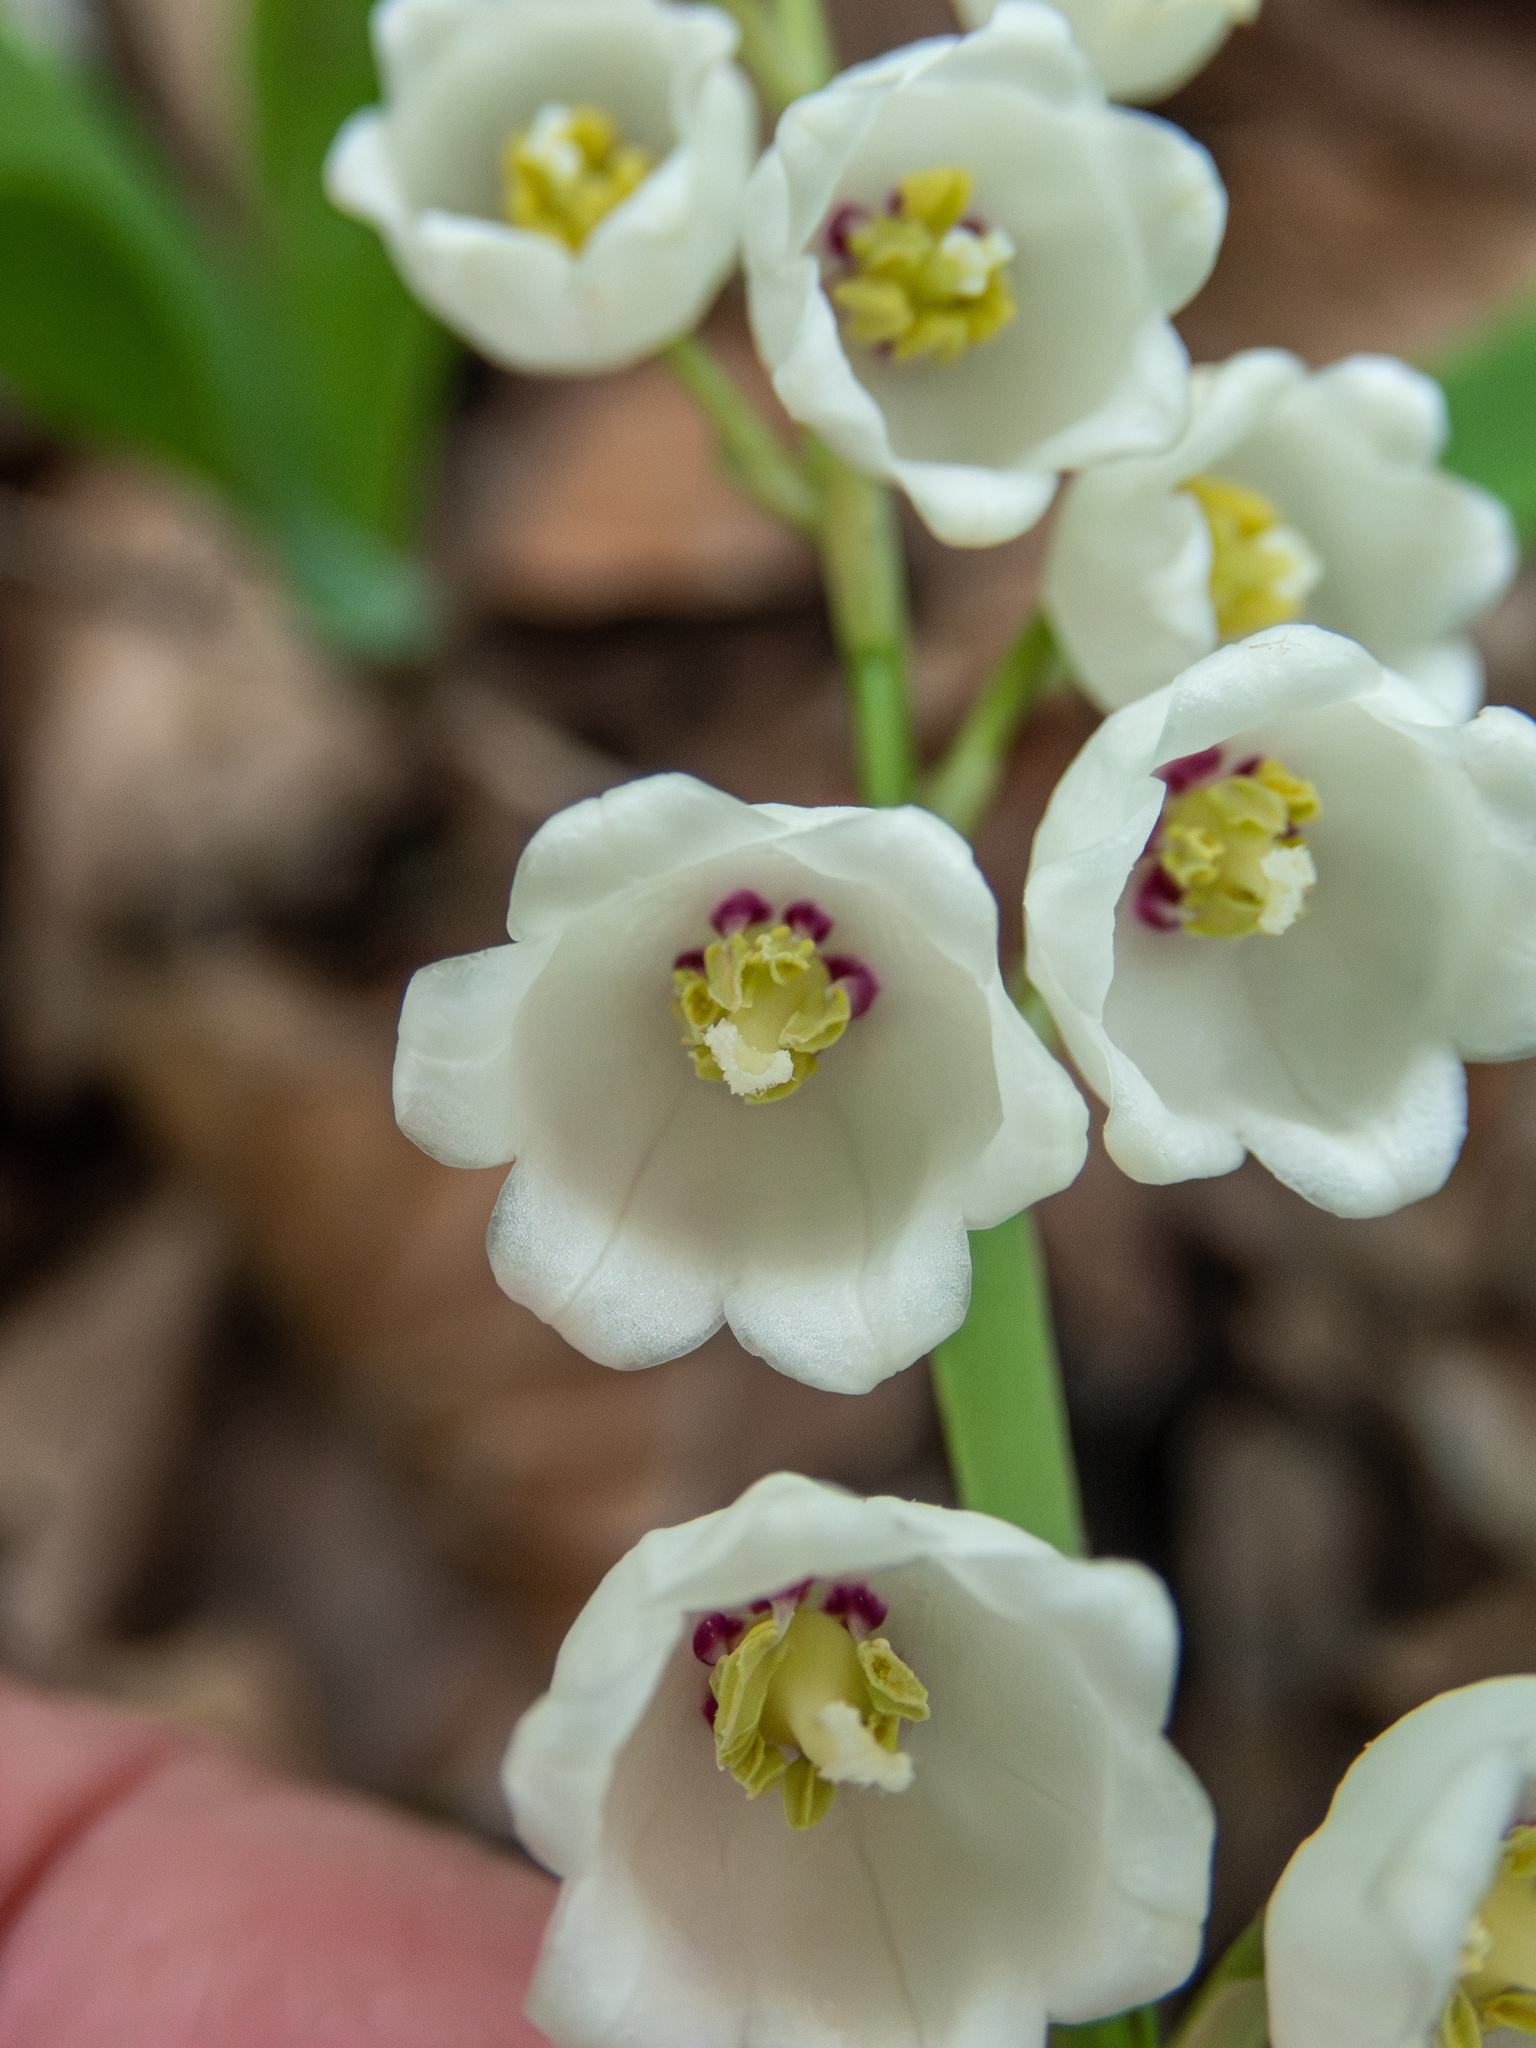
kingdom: Plantae
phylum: Tracheophyta
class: Liliopsida
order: Asparagales
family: Asparagaceae
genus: Convallaria
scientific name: Convallaria majalis
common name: Lily-of-the-valley
